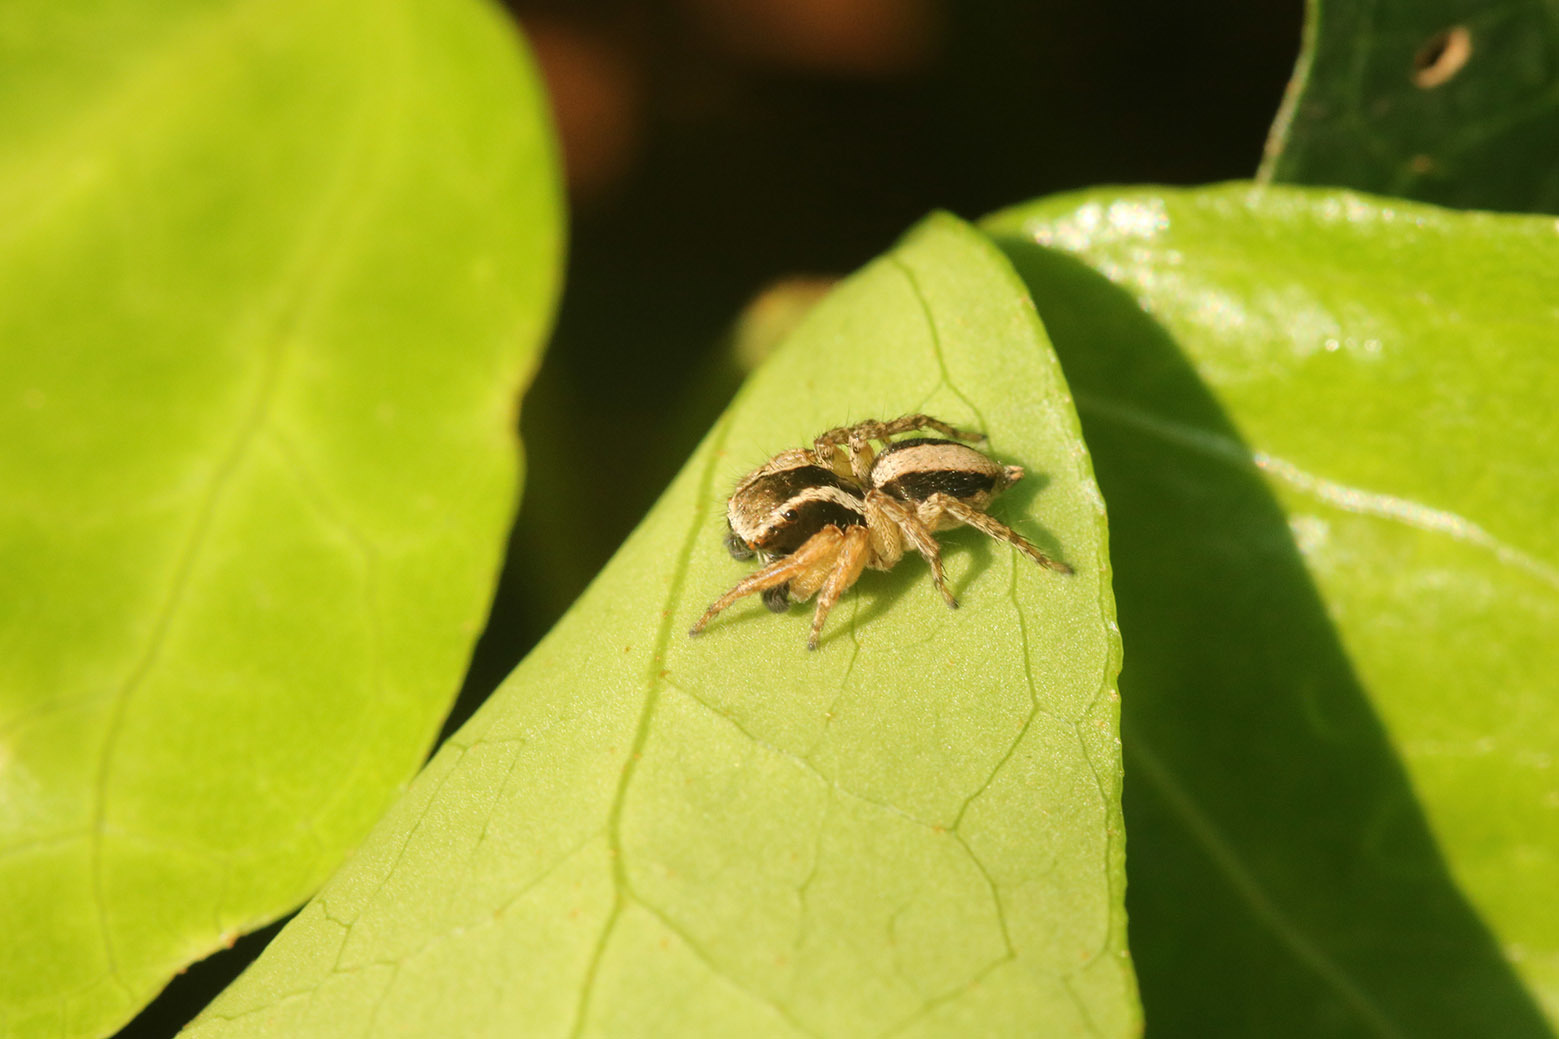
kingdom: Animalia
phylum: Arthropoda
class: Arachnida
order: Araneae
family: Salticidae
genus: Aphirape
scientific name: Aphirape
